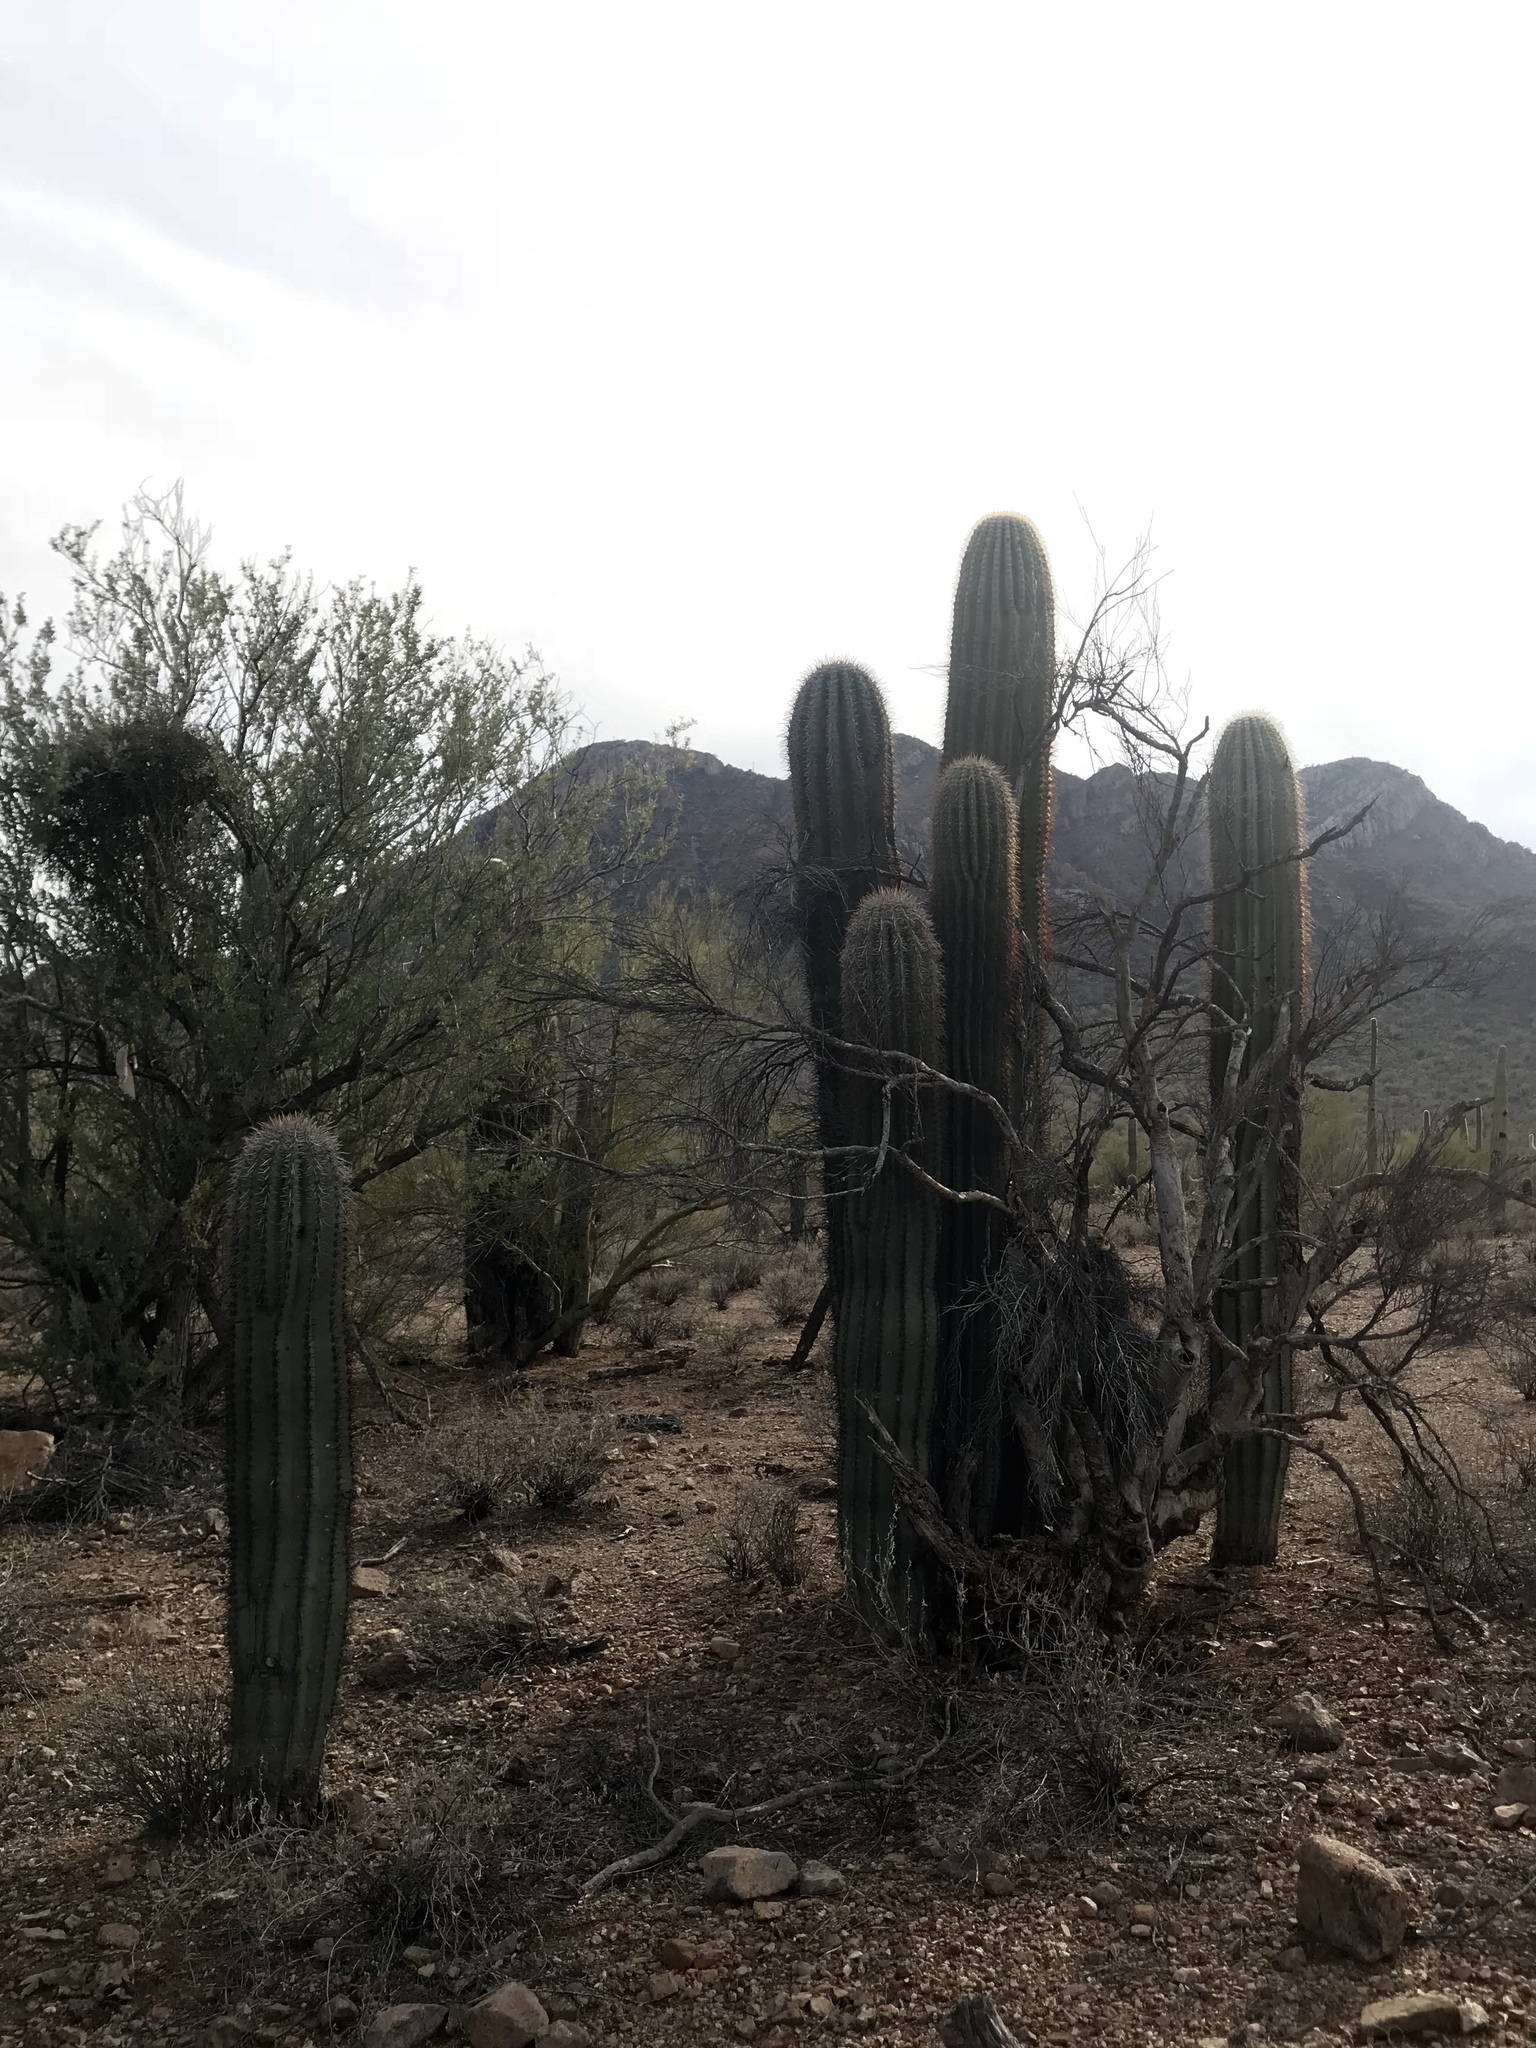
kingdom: Plantae
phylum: Tracheophyta
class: Magnoliopsida
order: Caryophyllales
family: Cactaceae
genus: Carnegiea
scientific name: Carnegiea gigantea
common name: Saguaro
